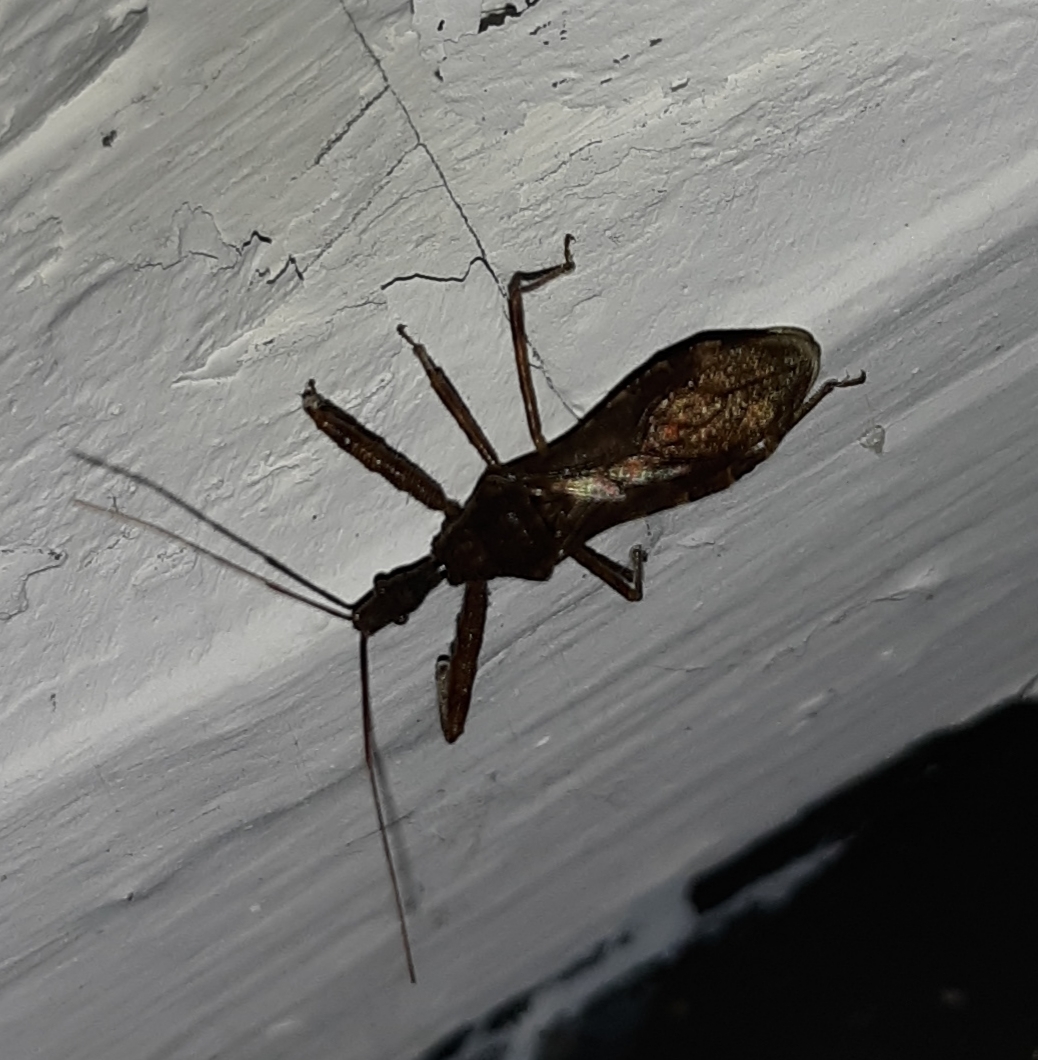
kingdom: Animalia
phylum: Arthropoda
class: Insecta
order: Hemiptera
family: Reduviidae
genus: Acholla
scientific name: Acholla multispinosa
